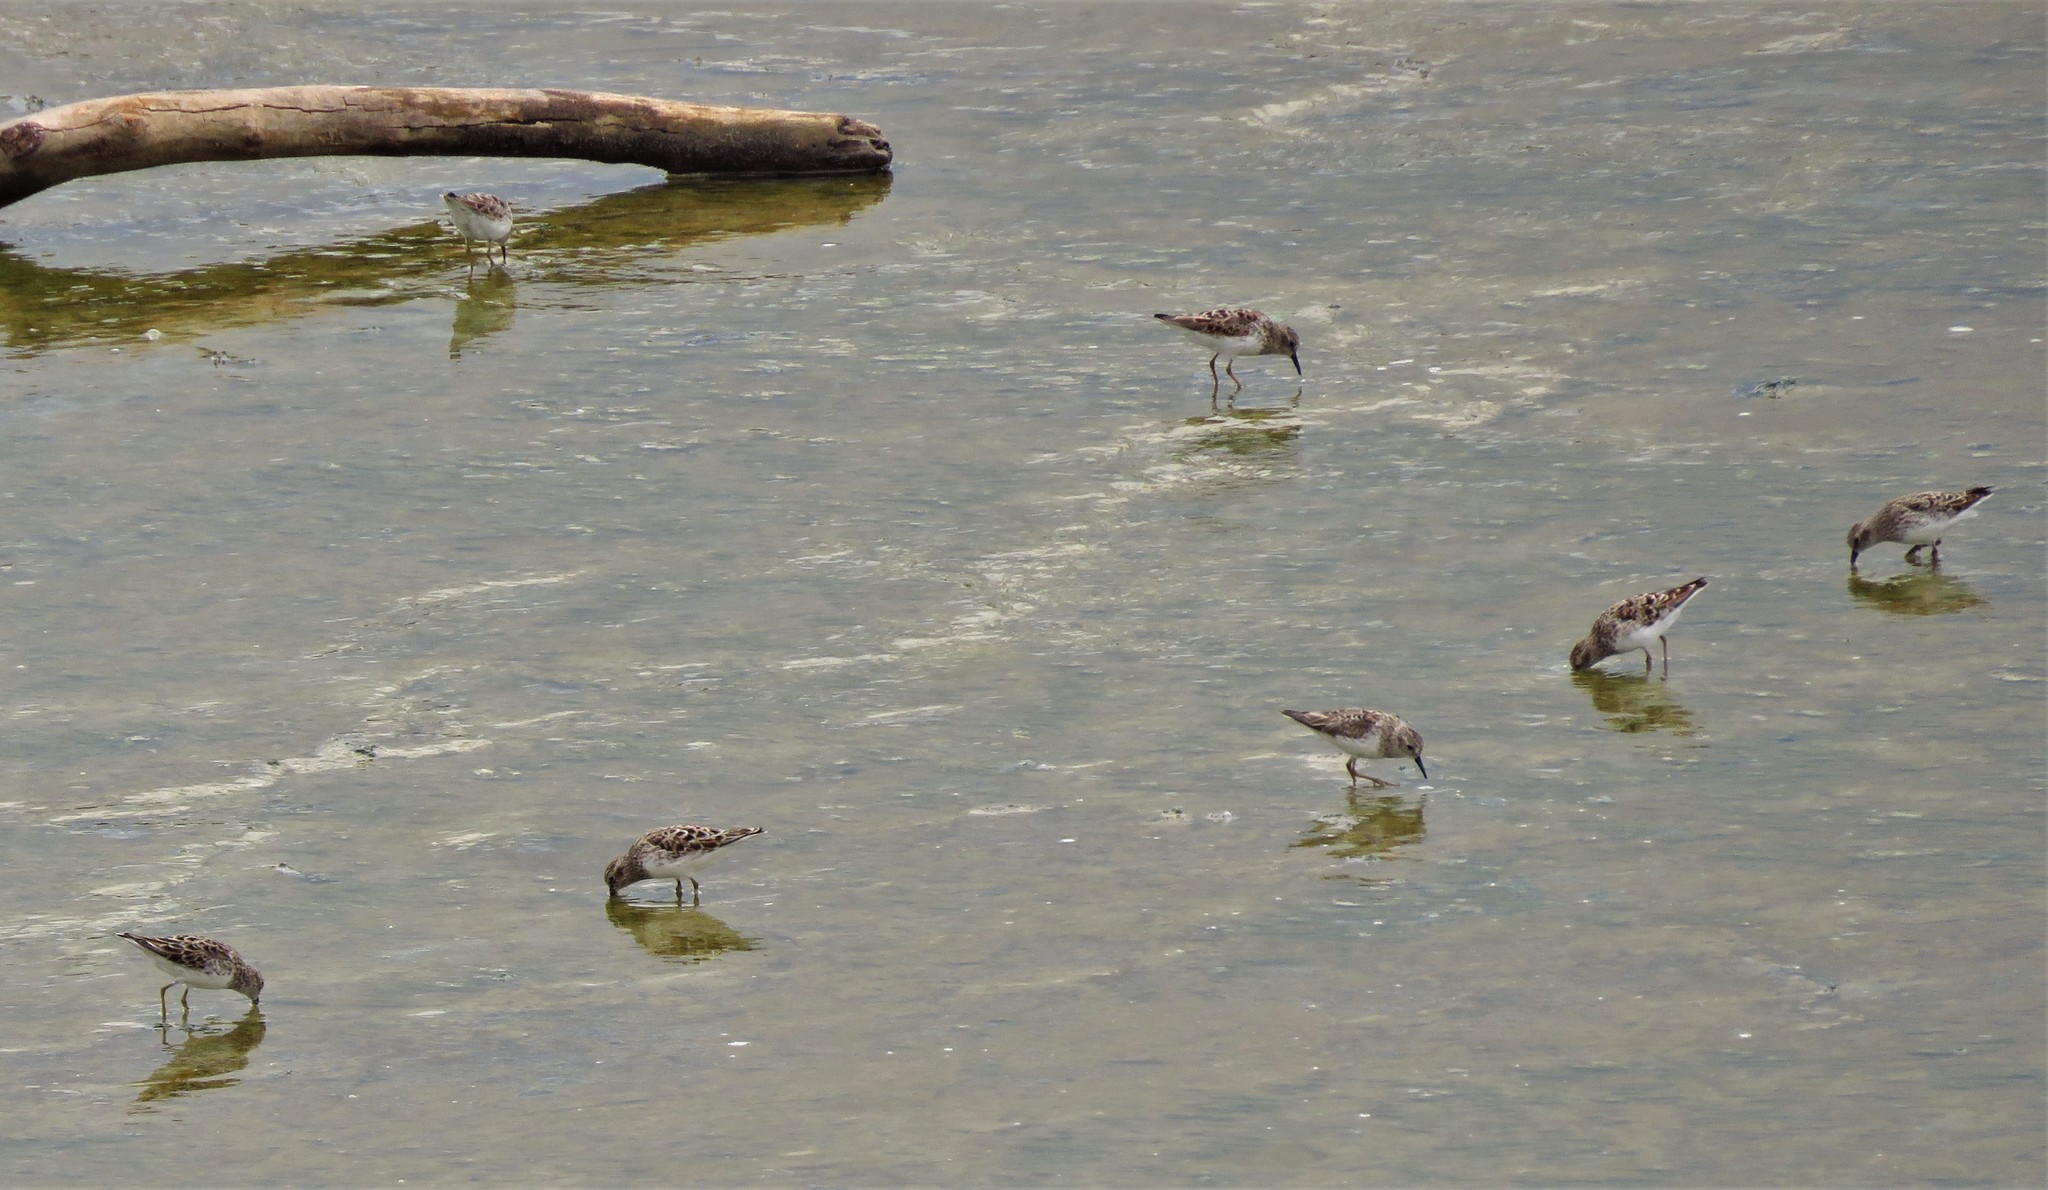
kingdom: Animalia
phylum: Chordata
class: Aves
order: Charadriiformes
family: Scolopacidae
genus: Calidris
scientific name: Calidris minutilla
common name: Least sandpiper
